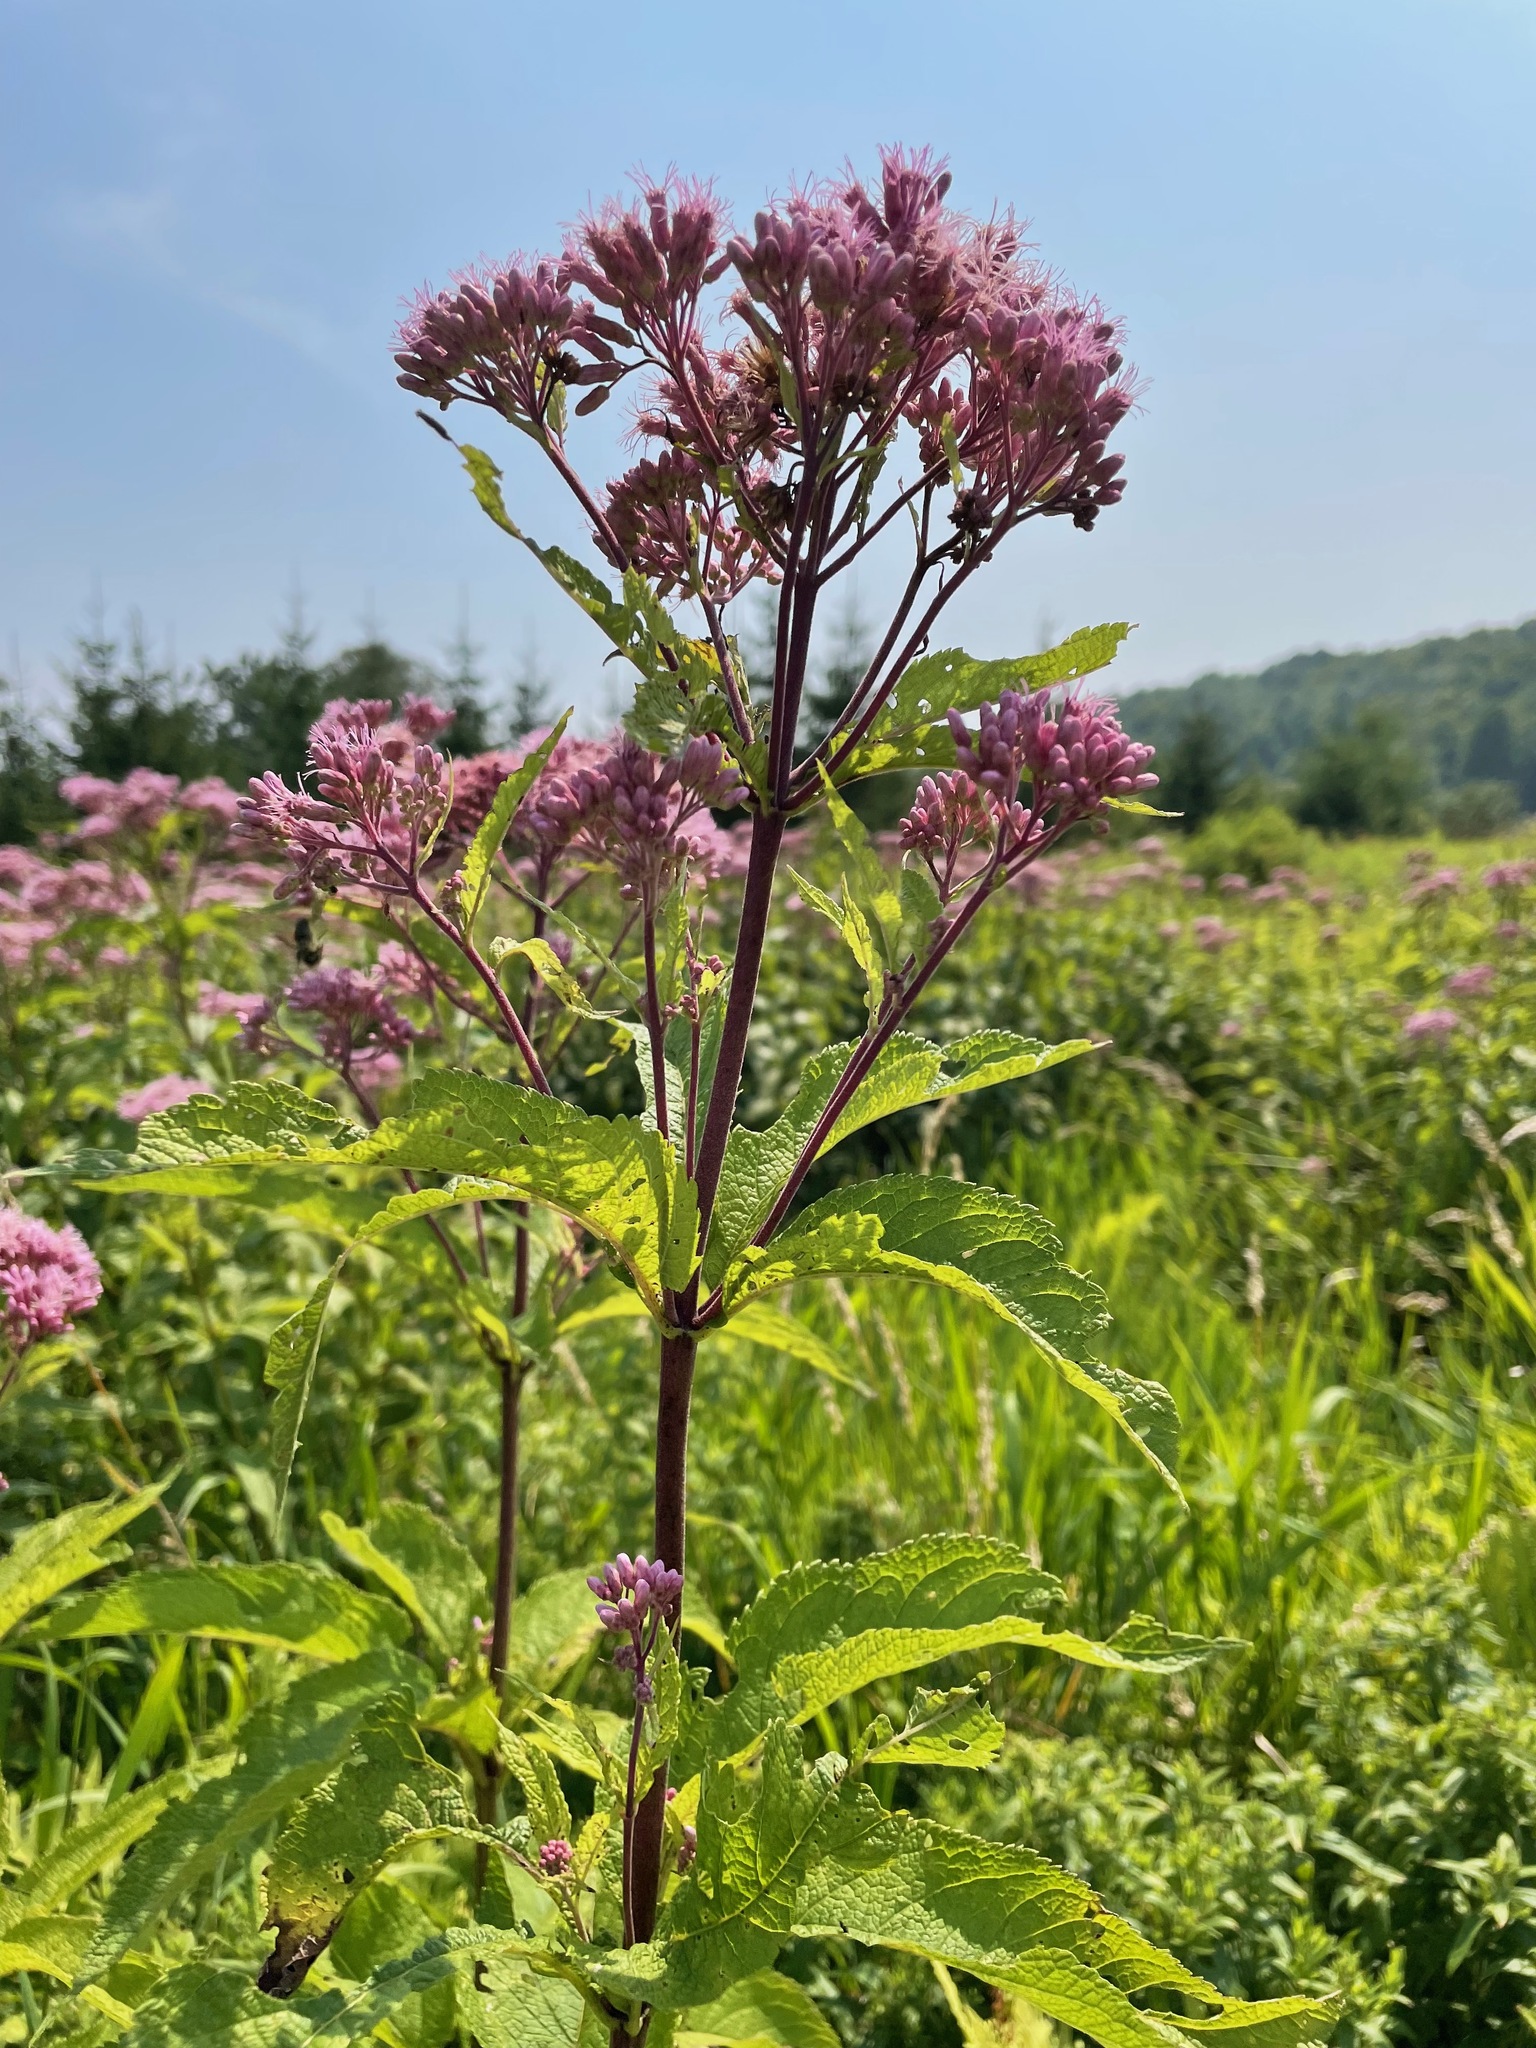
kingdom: Plantae
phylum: Tracheophyta
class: Magnoliopsida
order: Asterales
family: Asteraceae
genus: Eutrochium
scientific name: Eutrochium maculatum
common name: Spotted joe pye weed
